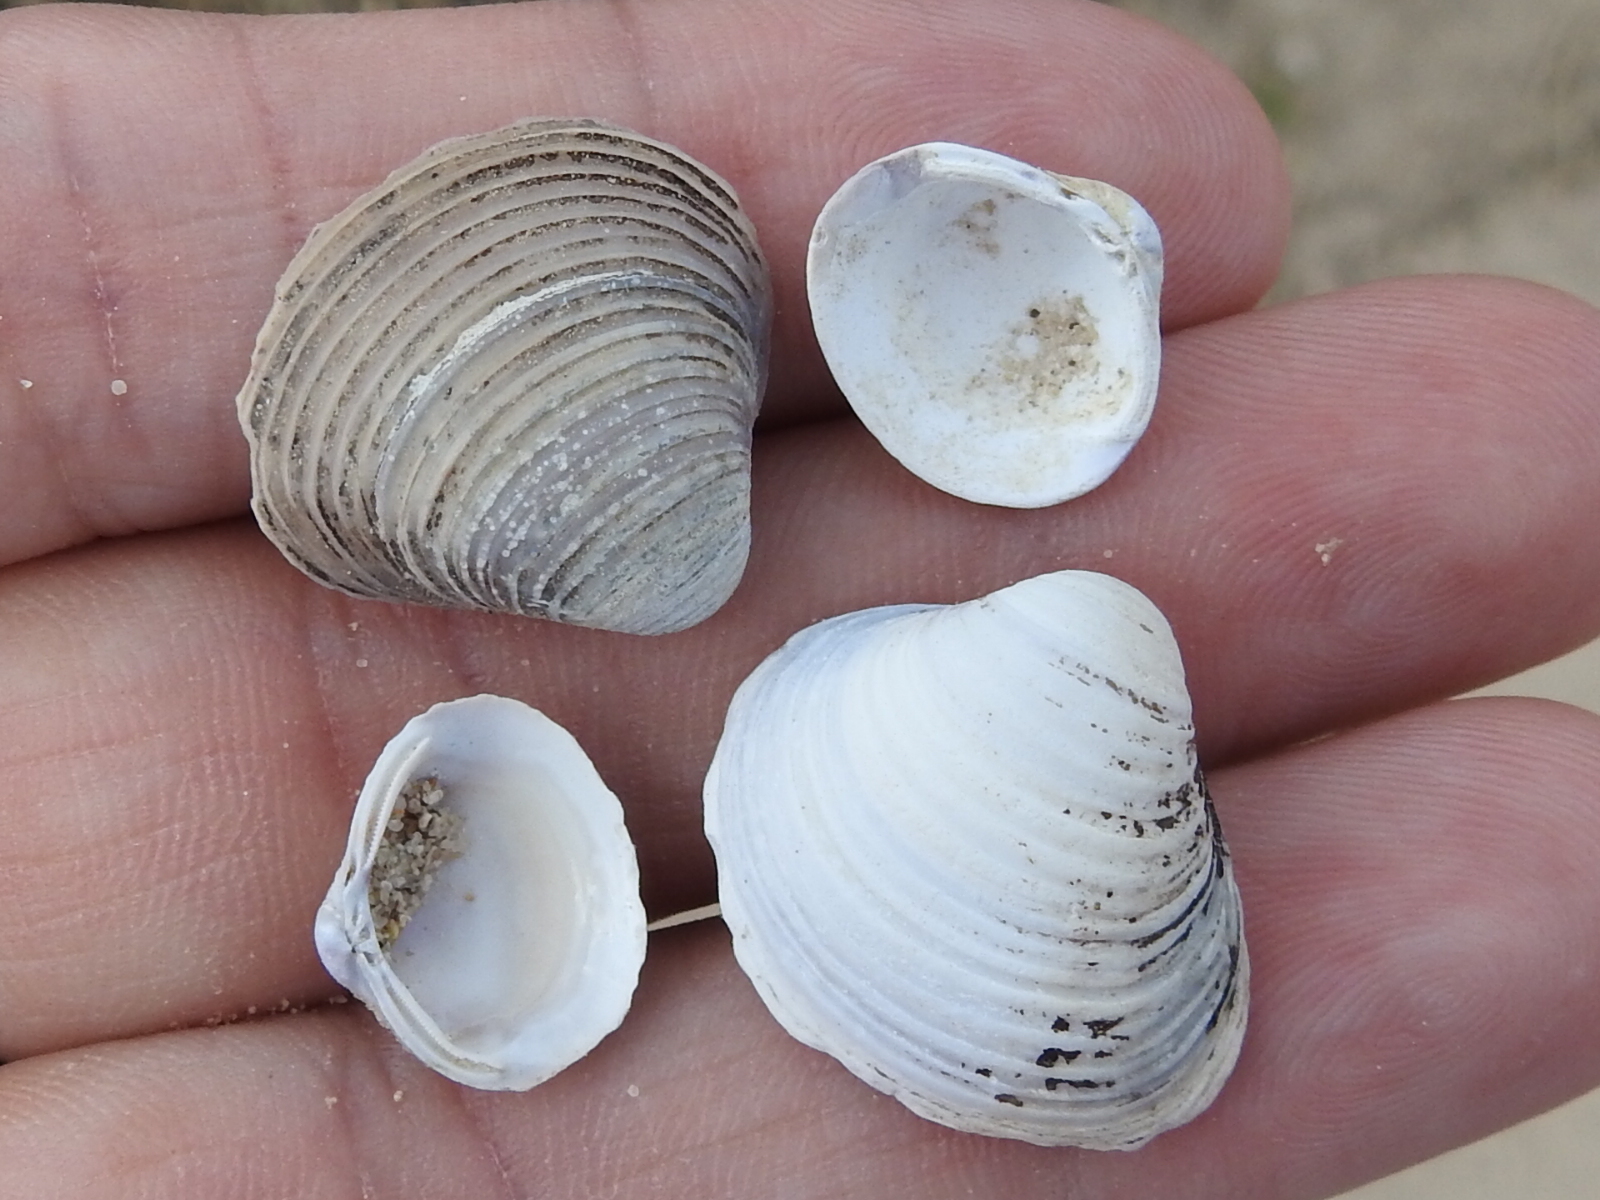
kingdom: Animalia
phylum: Mollusca
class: Bivalvia
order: Venerida
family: Cyrenidae
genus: Corbicula
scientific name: Corbicula fluminea
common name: Asian clam
